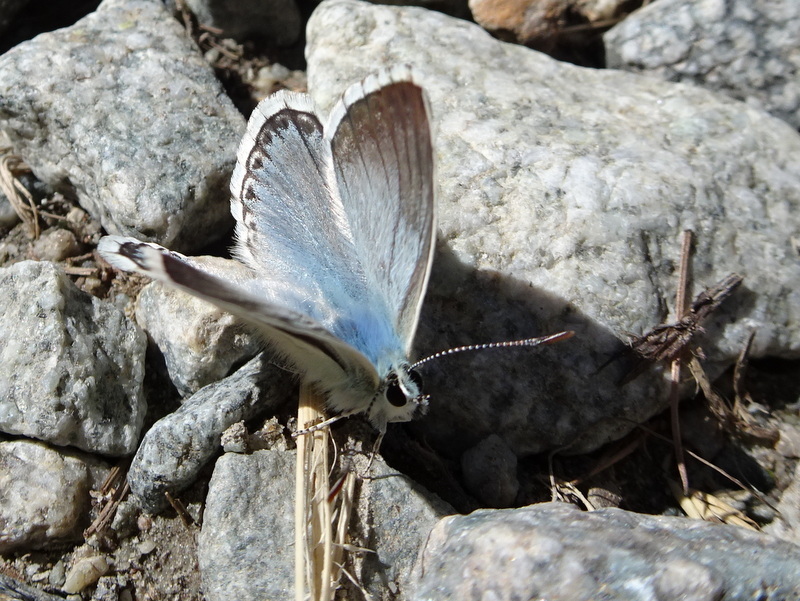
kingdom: Animalia
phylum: Arthropoda
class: Insecta
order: Lepidoptera
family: Lycaenidae
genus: Lysandra
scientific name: Lysandra coridon
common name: Chalkhill blue
